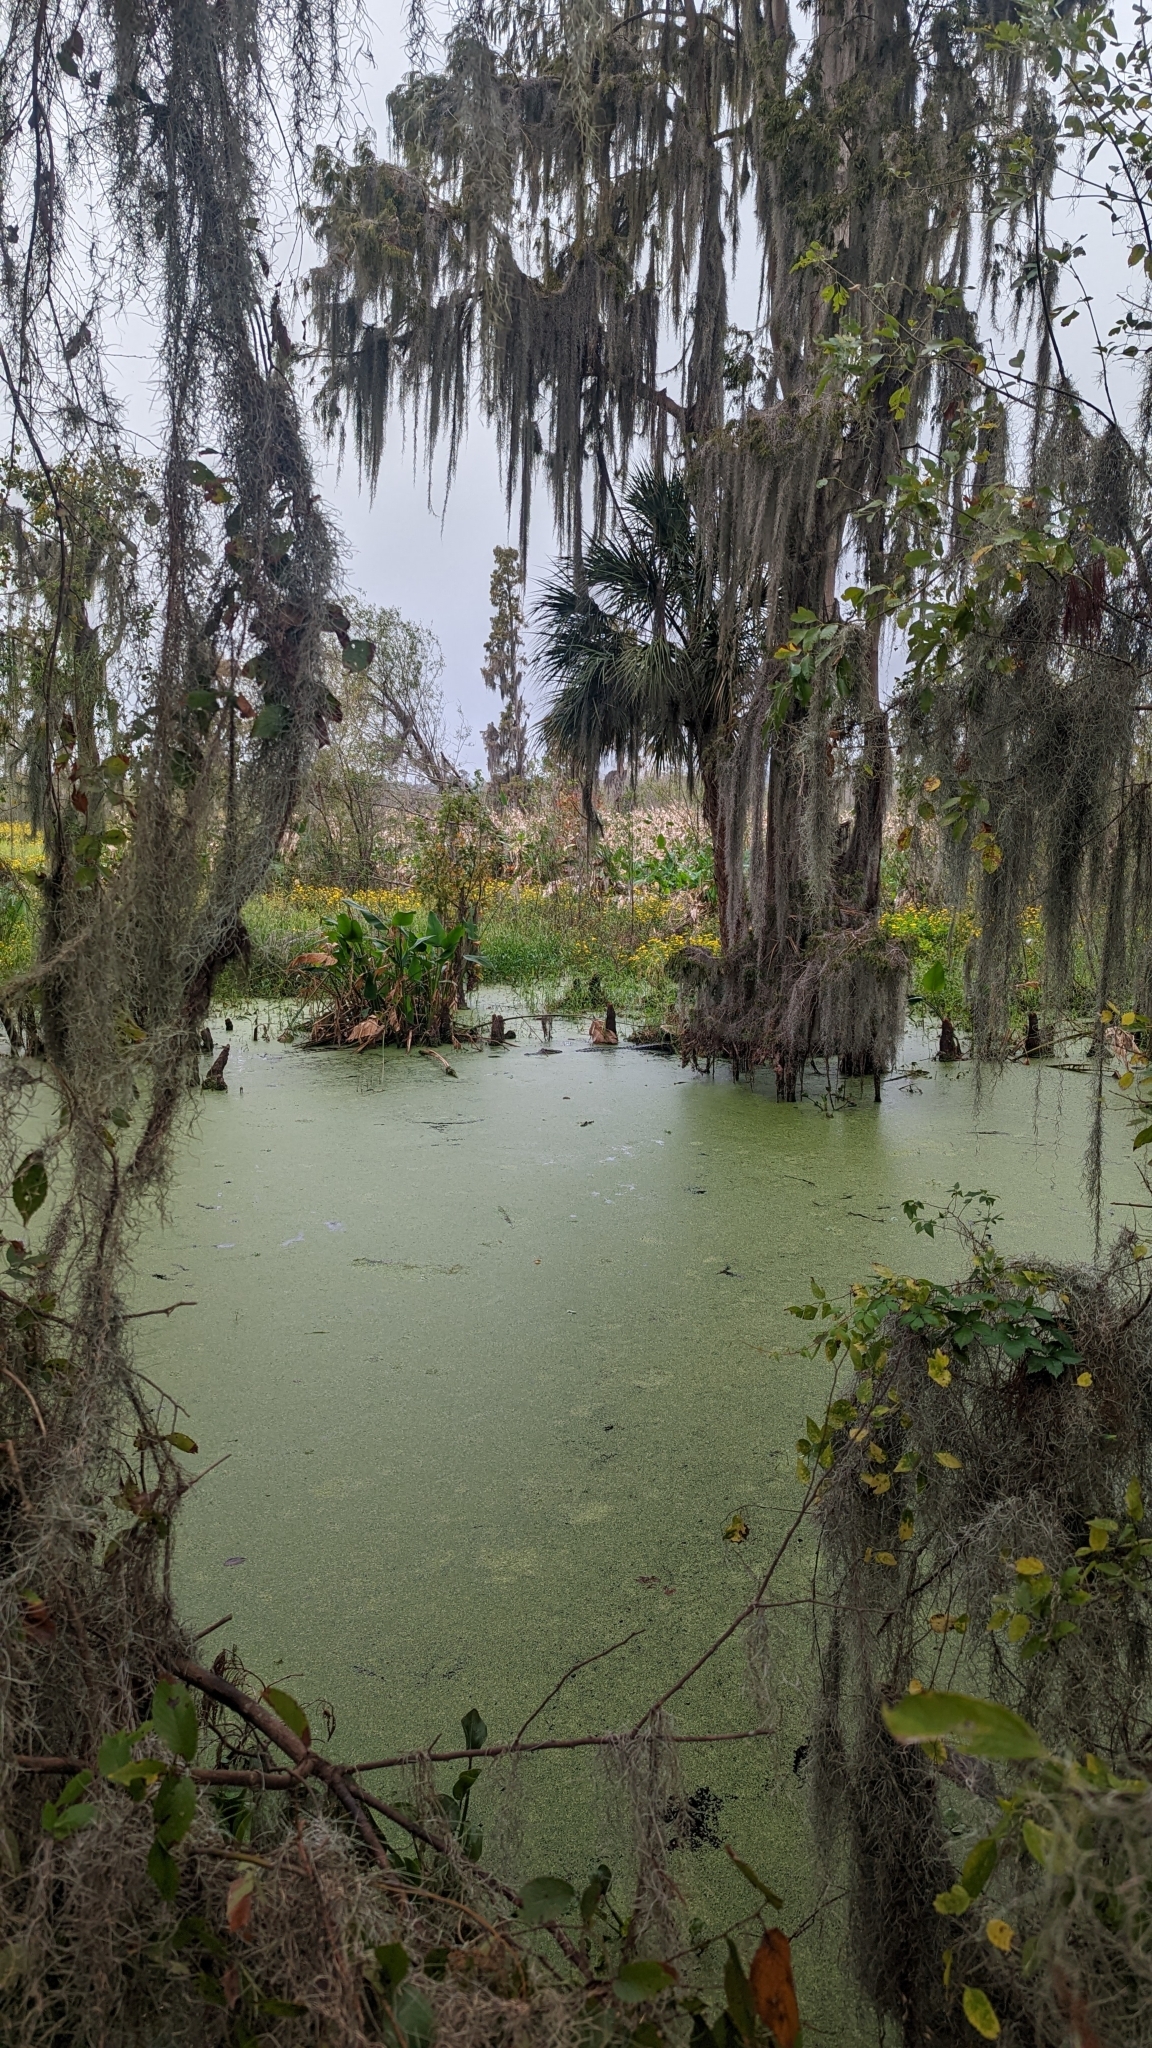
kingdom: Animalia
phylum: Chordata
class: Crocodylia
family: Alligatoridae
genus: Alligator
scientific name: Alligator mississippiensis
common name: American alligator
